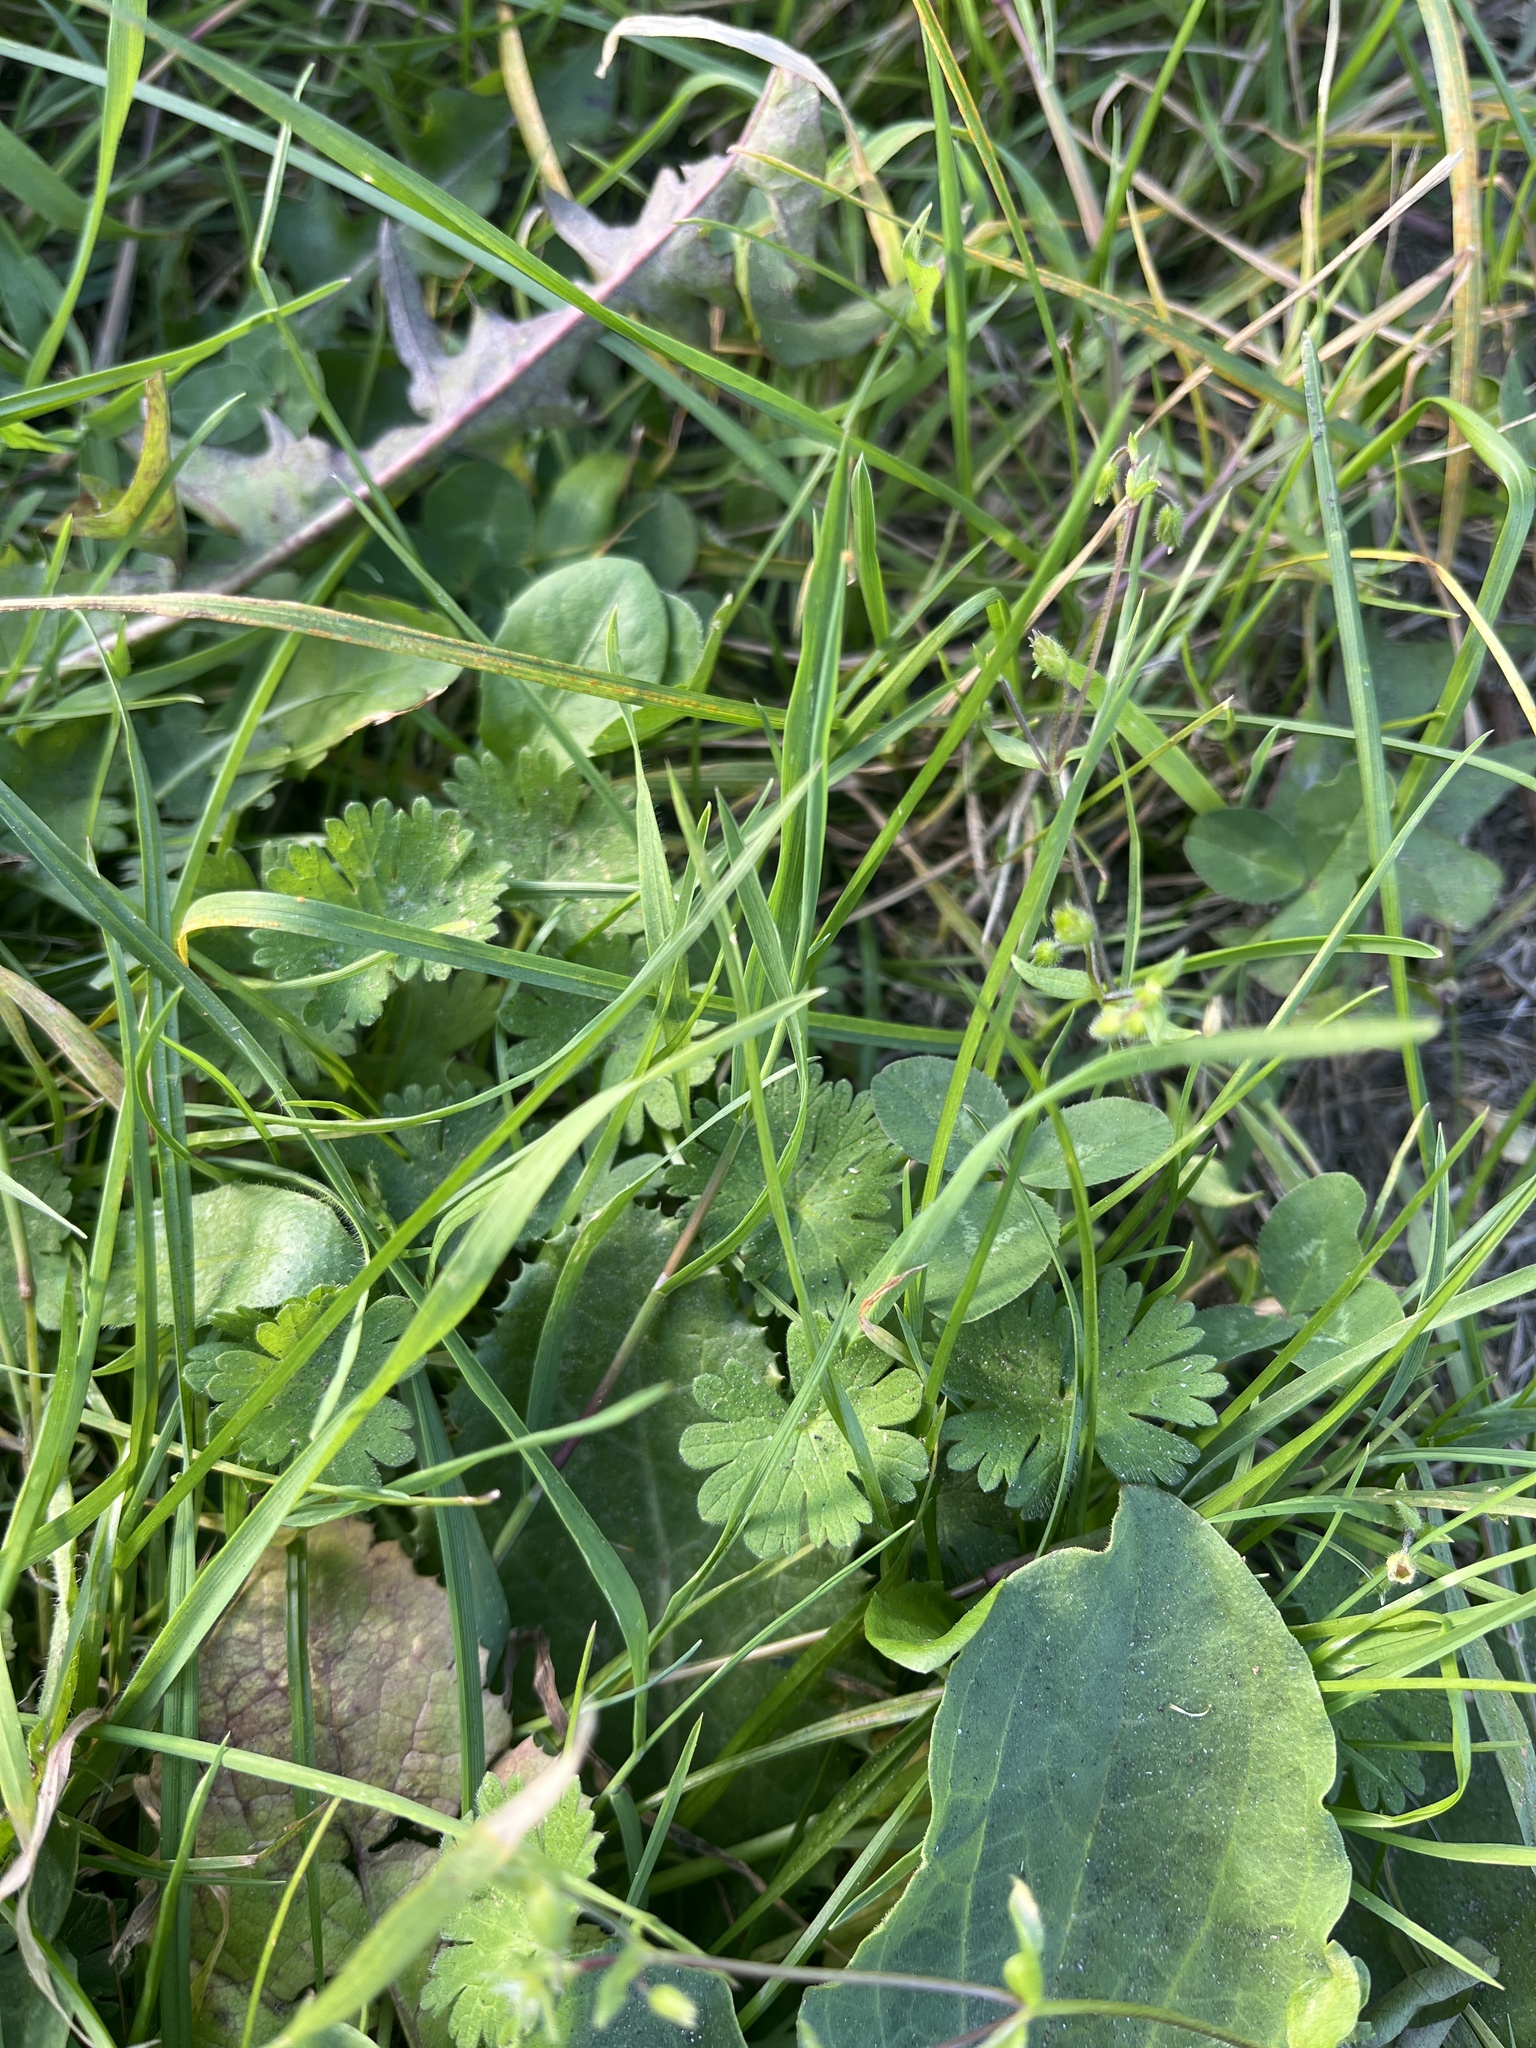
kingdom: Plantae
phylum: Tracheophyta
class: Magnoliopsida
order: Geraniales
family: Geraniaceae
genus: Geranium
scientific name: Geranium molle
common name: Dove's-foot crane's-bill
